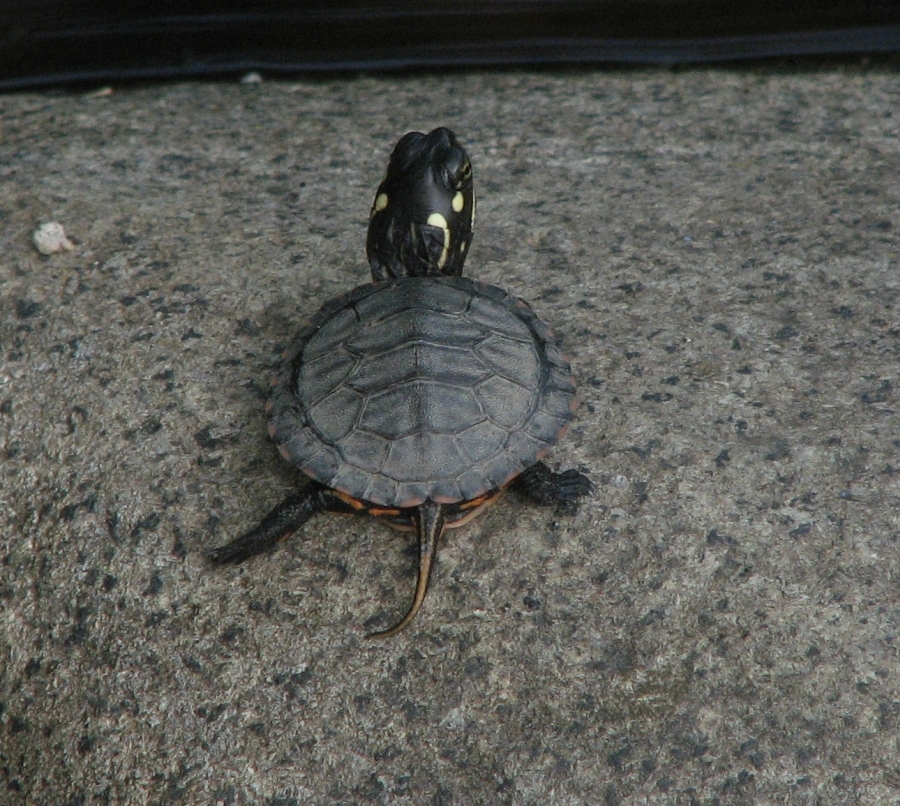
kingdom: Animalia
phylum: Chordata
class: Testudines
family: Emydidae
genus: Chrysemys
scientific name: Chrysemys picta
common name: Painted turtle
